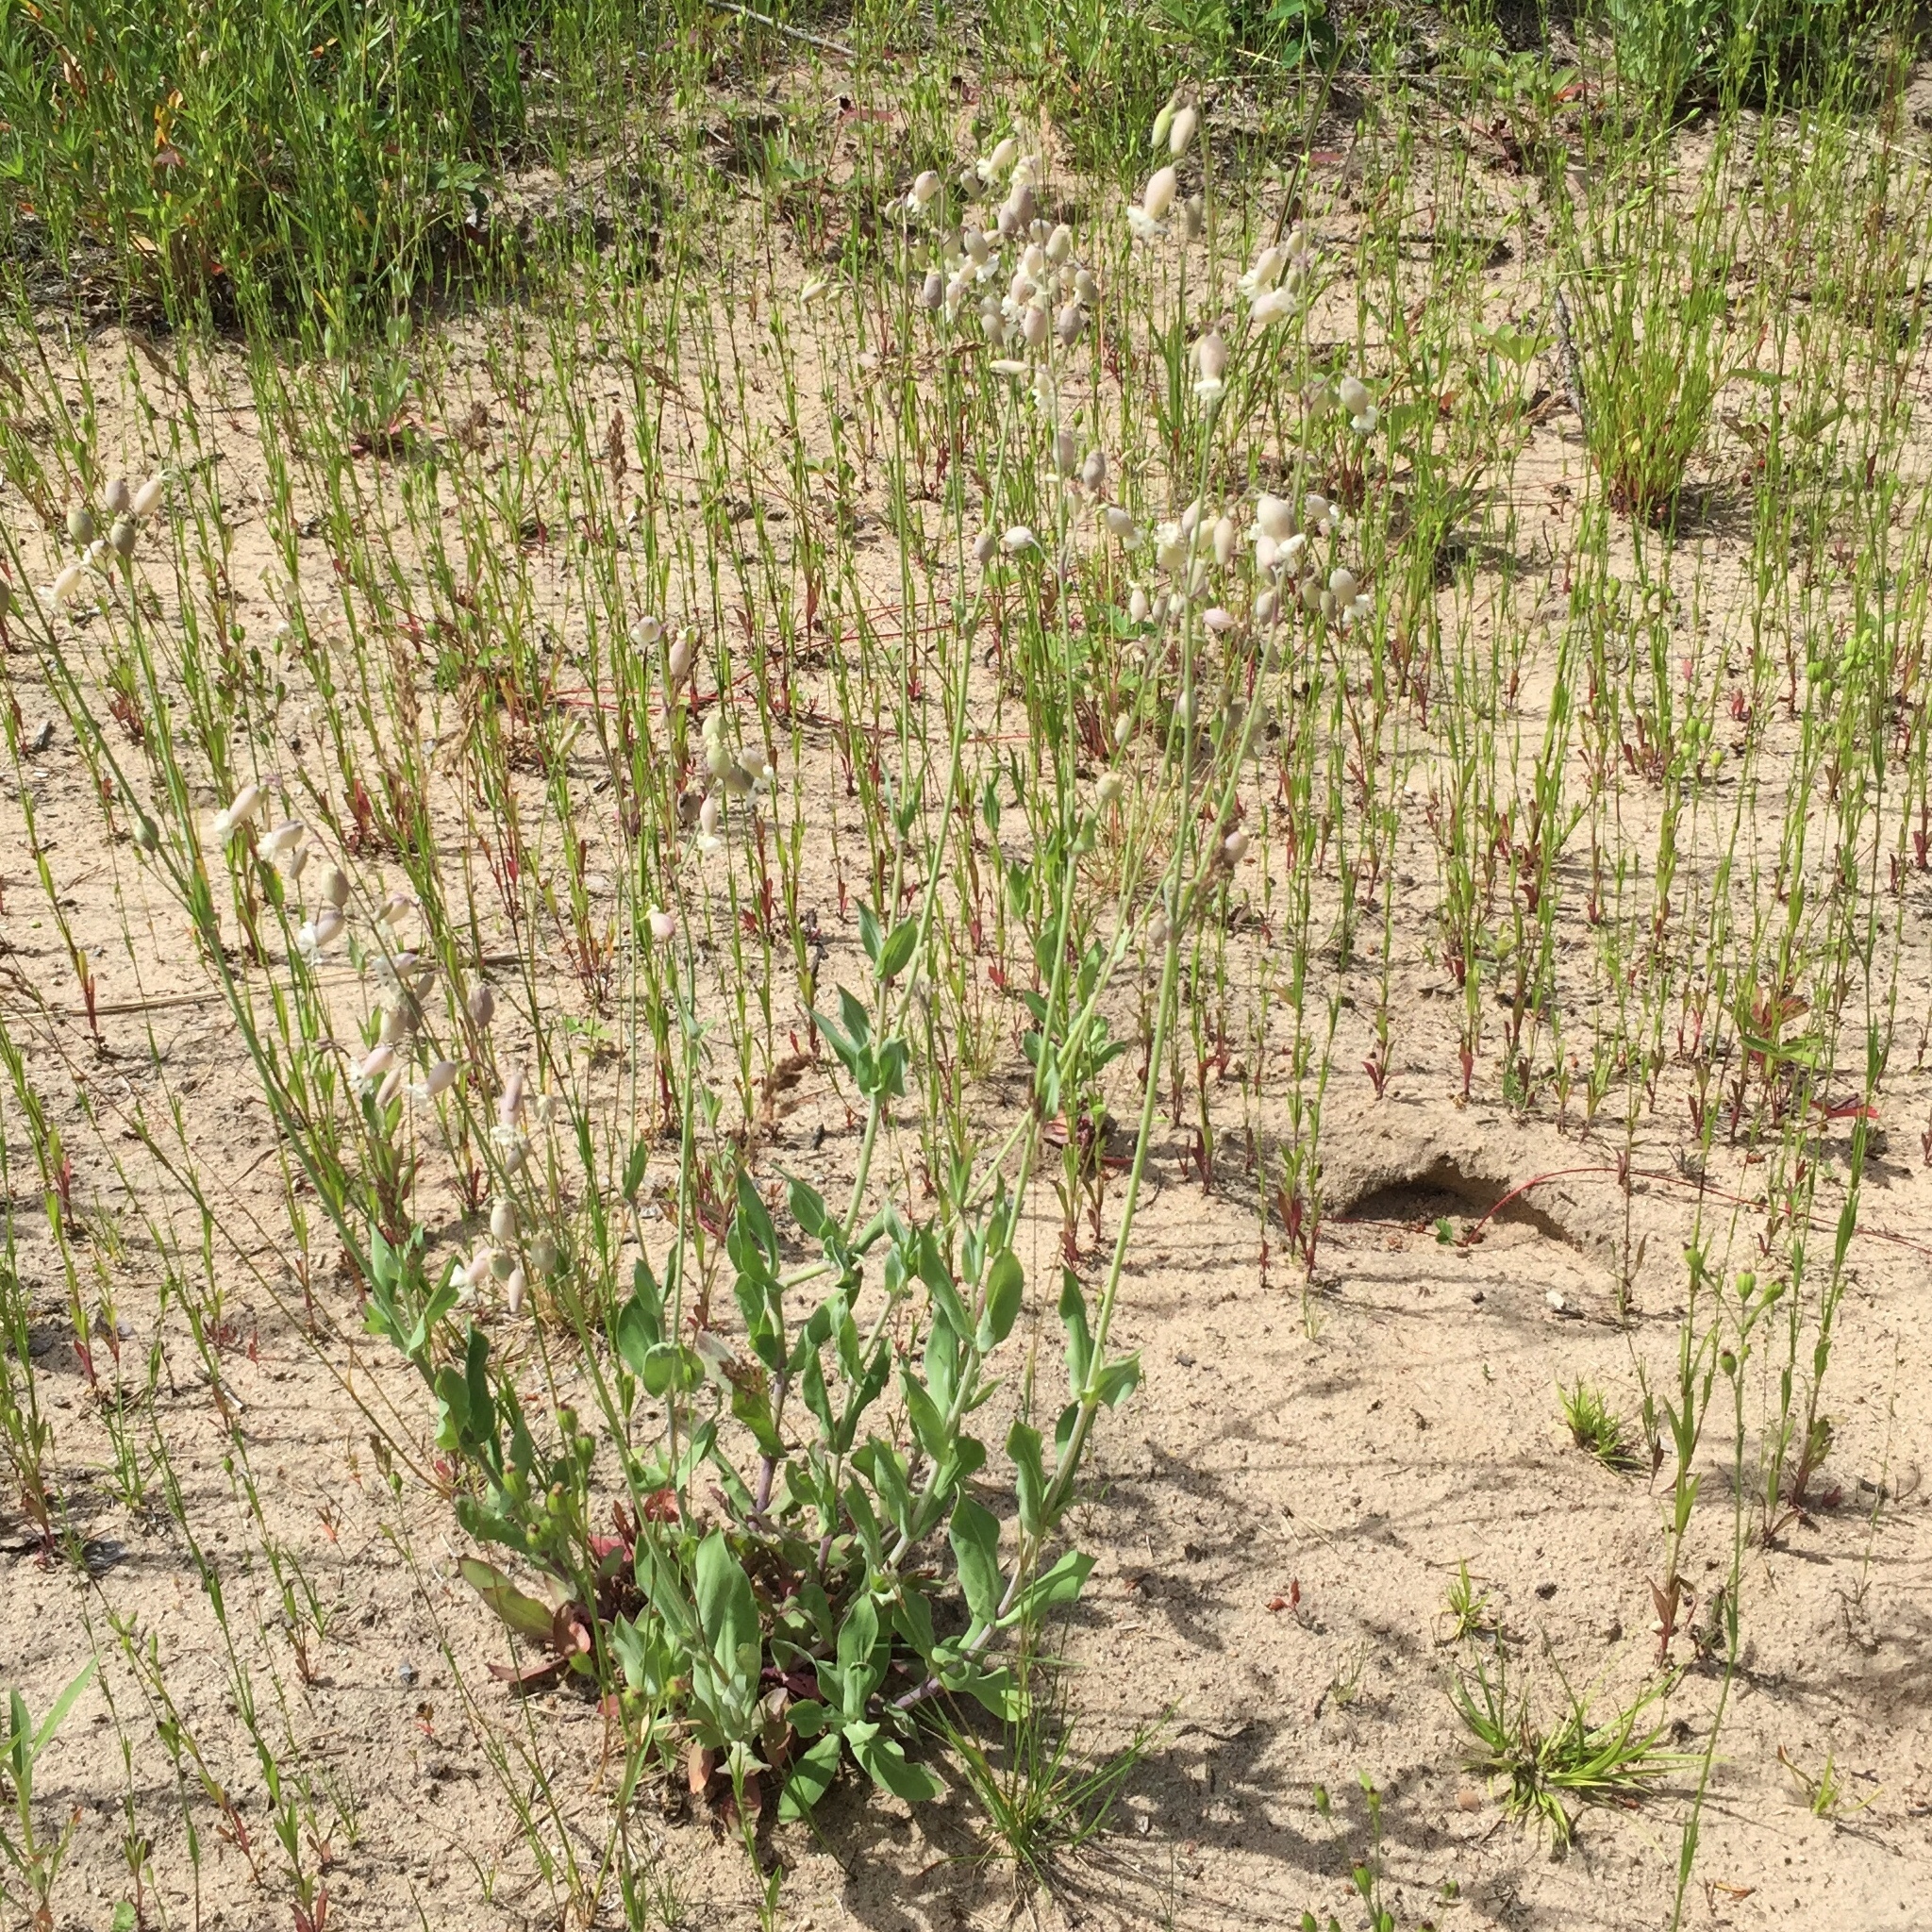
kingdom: Plantae
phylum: Tracheophyta
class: Magnoliopsida
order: Caryophyllales
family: Caryophyllaceae
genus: Silene
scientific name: Silene vulgaris
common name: Bladder campion
